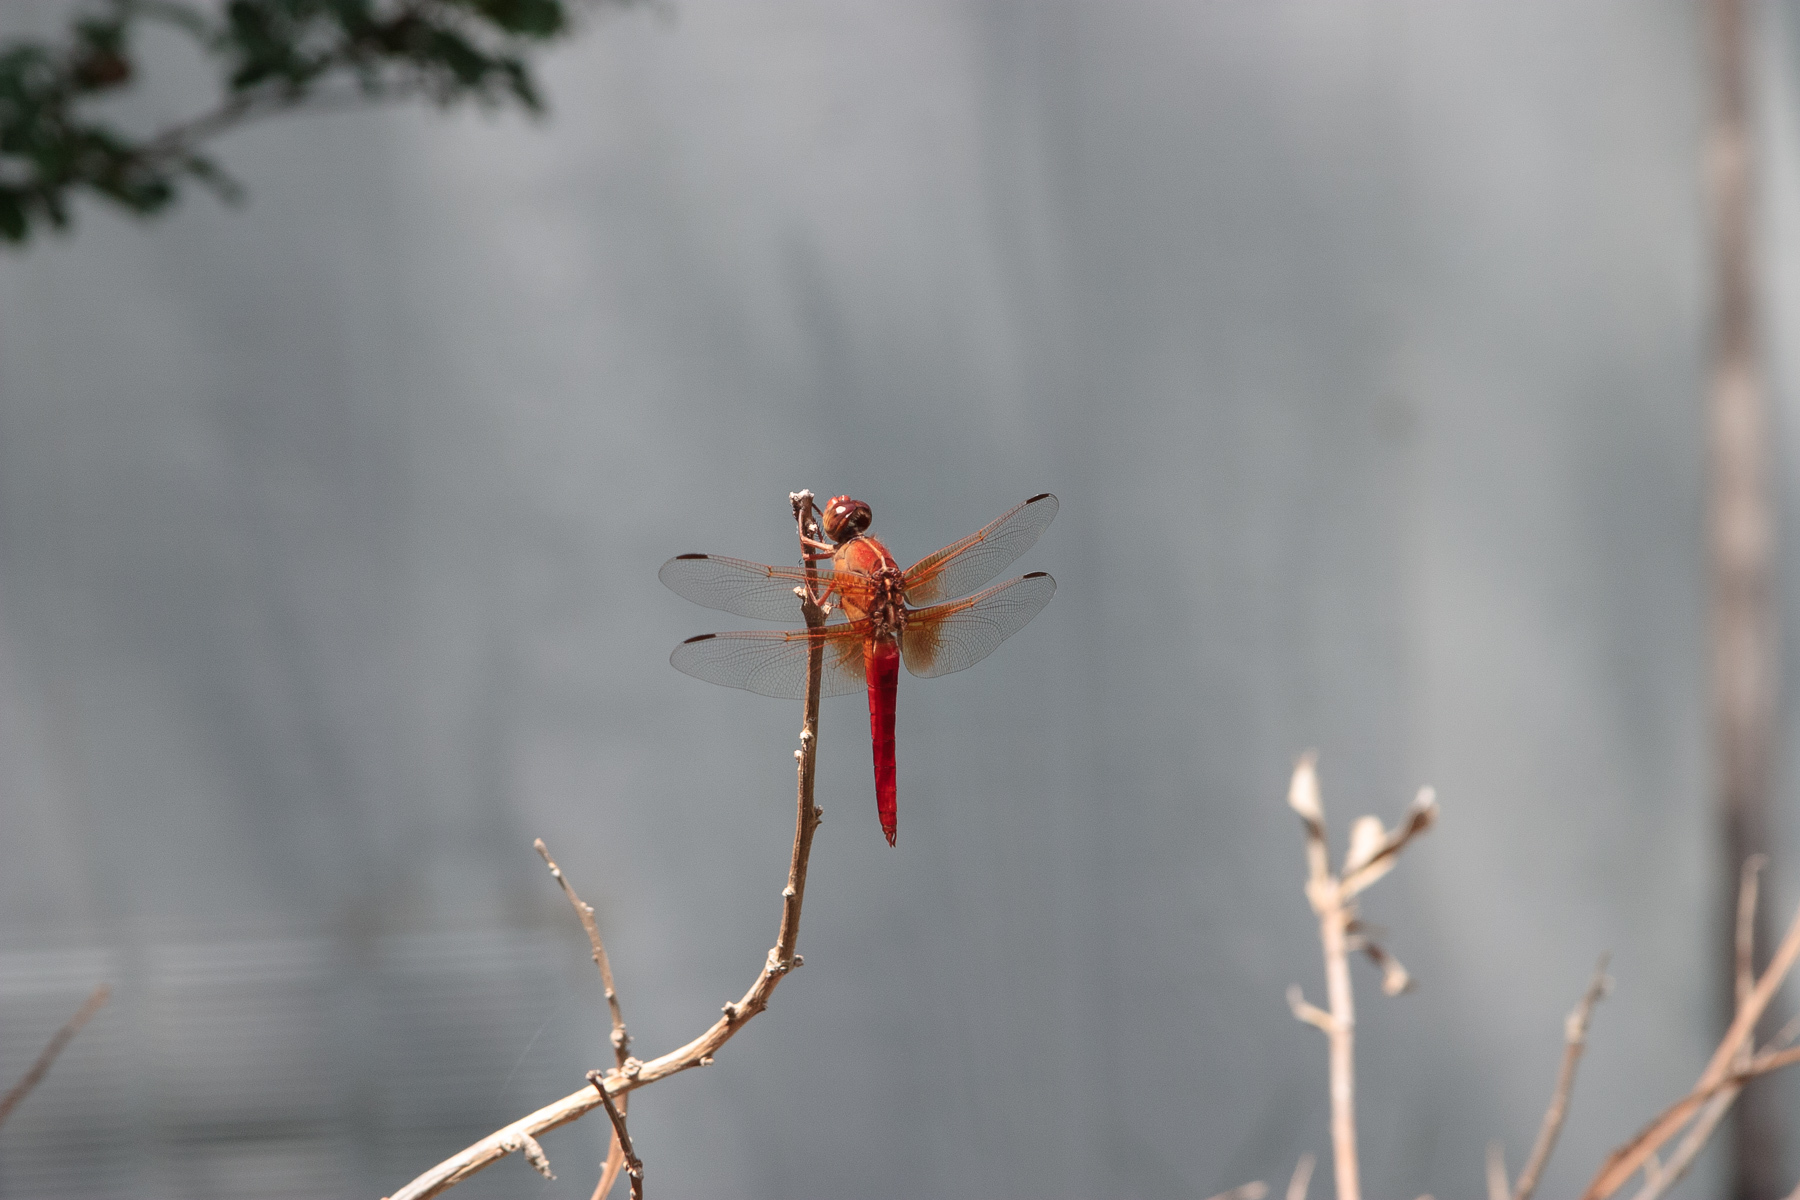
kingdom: Animalia
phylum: Arthropoda
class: Insecta
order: Odonata
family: Libellulidae
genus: Libellula
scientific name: Libellula croceipennis
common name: Neon skimmer
